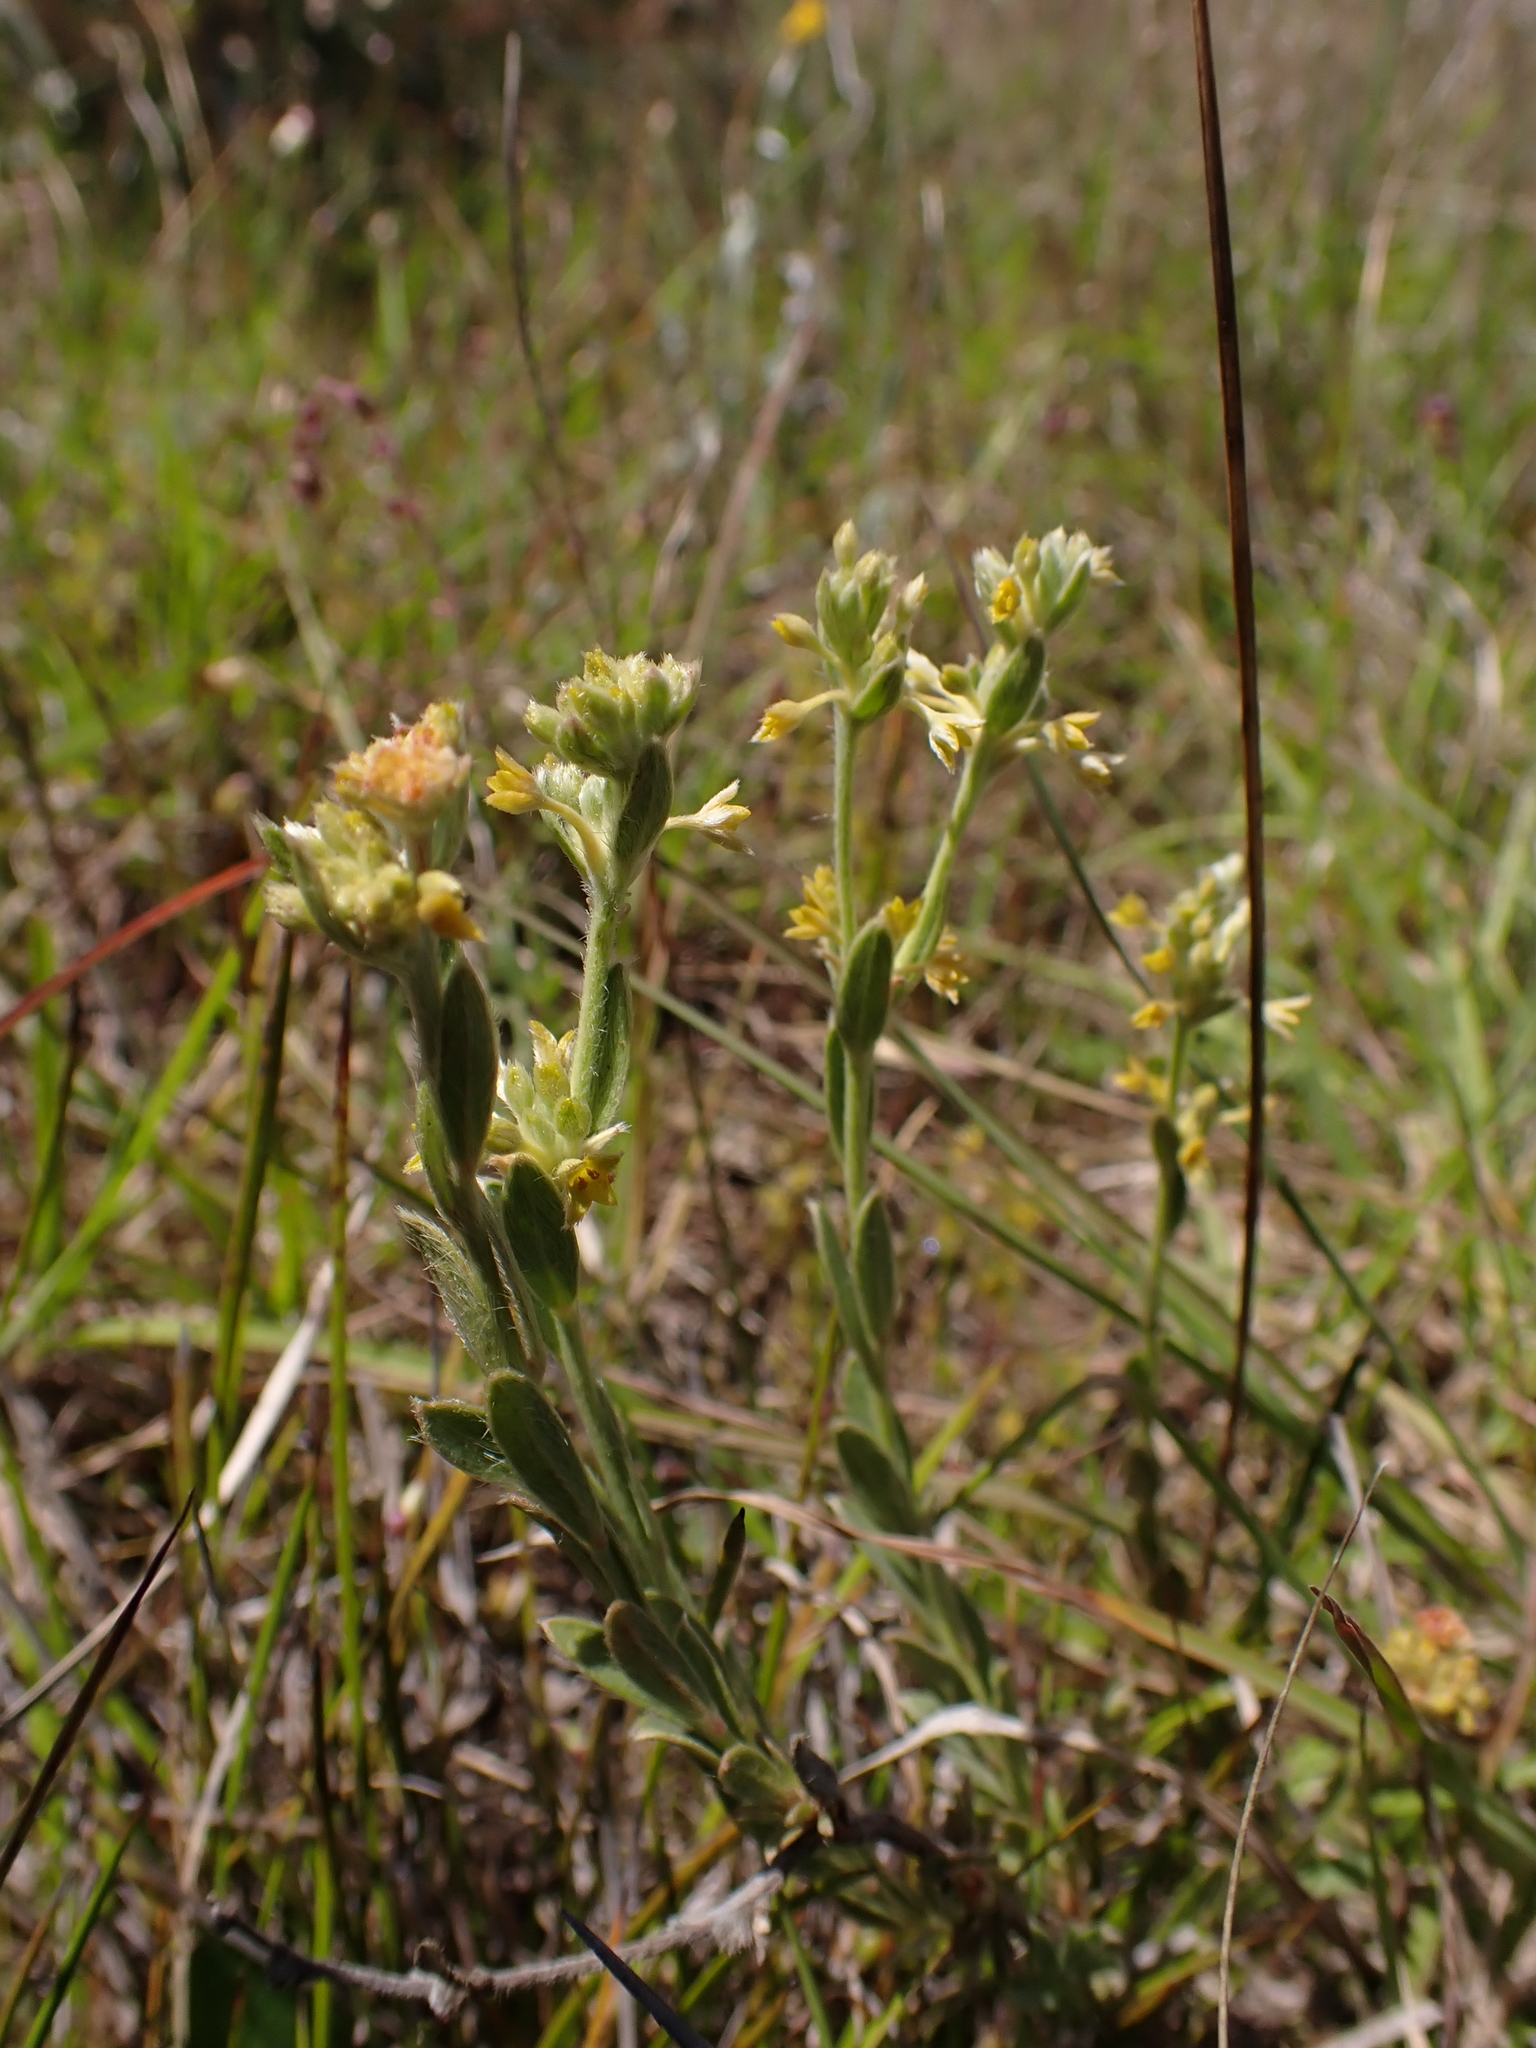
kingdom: Plantae
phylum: Tracheophyta
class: Magnoliopsida
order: Malvales
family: Thymelaeaceae
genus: Pimelea
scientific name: Pimelea curviflora
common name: Curved riceflower
